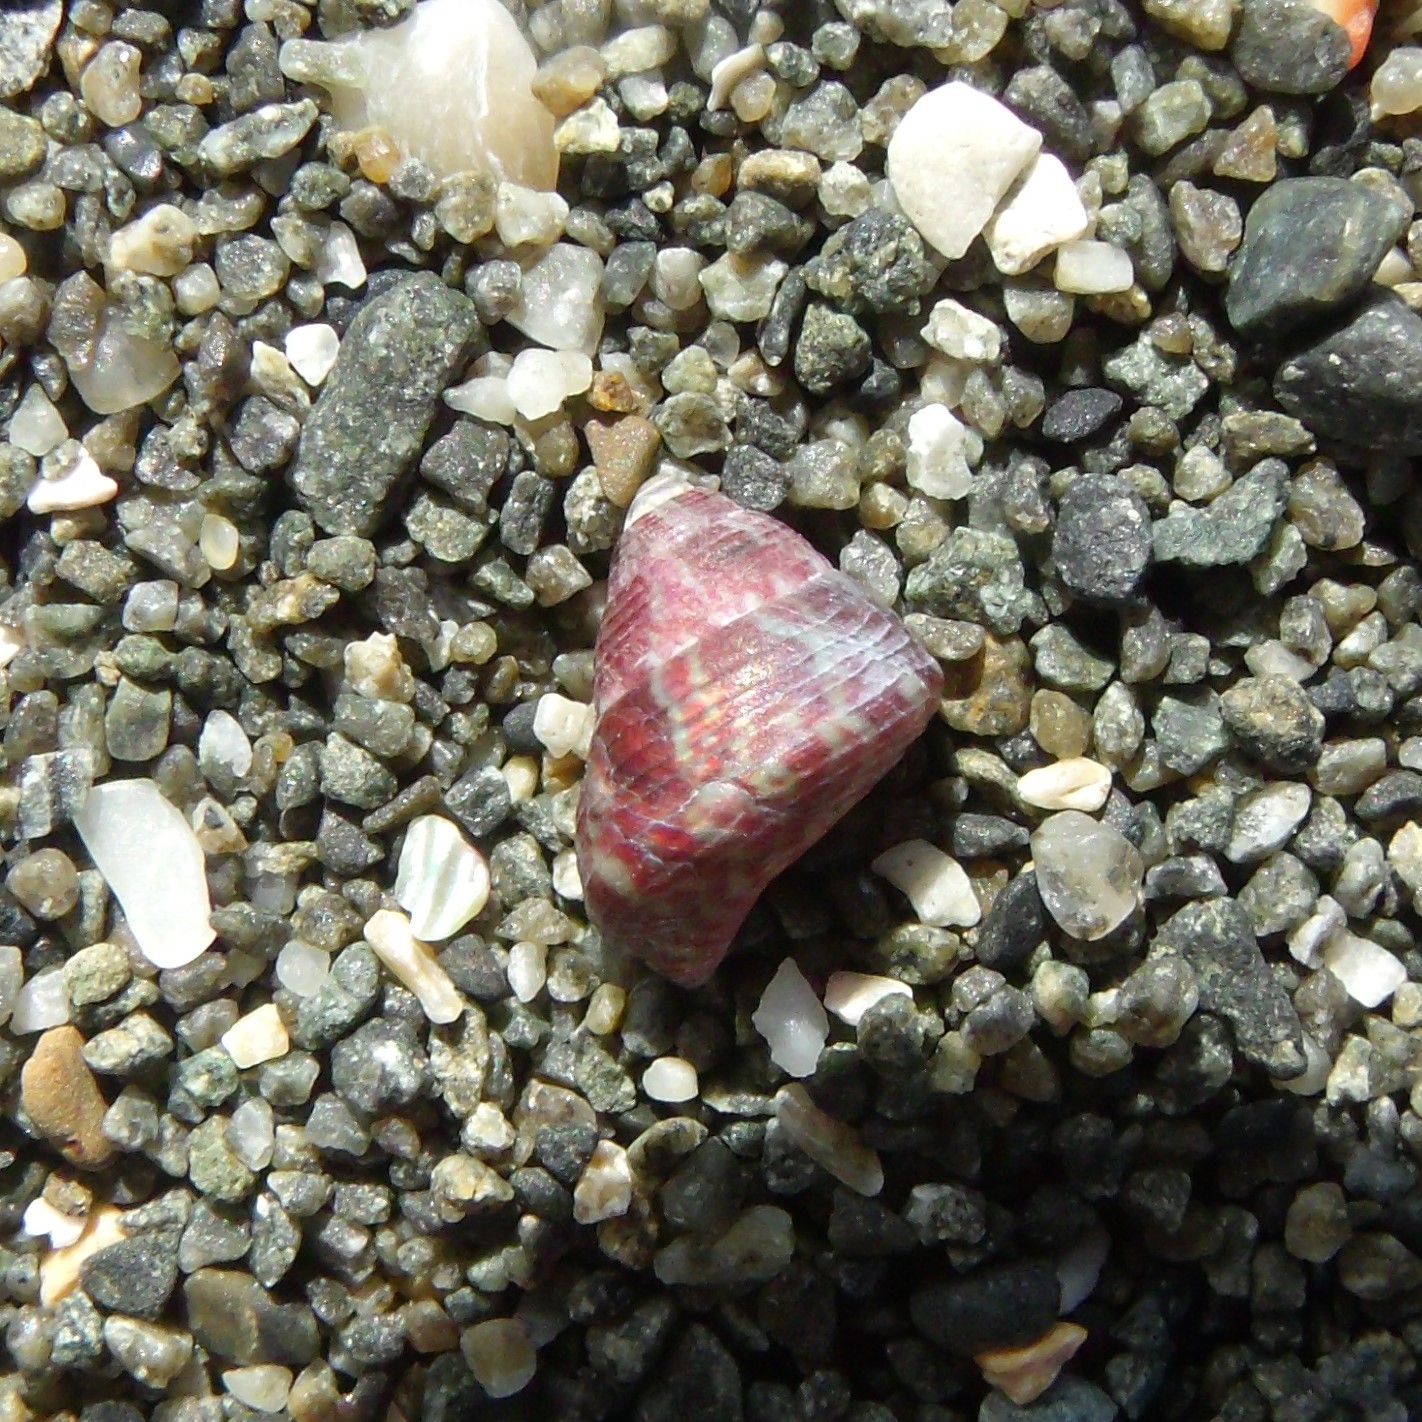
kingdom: Animalia
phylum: Mollusca
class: Gastropoda
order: Trochida
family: Trochidae
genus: Micrelenchus
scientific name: Micrelenchus sanguineus
